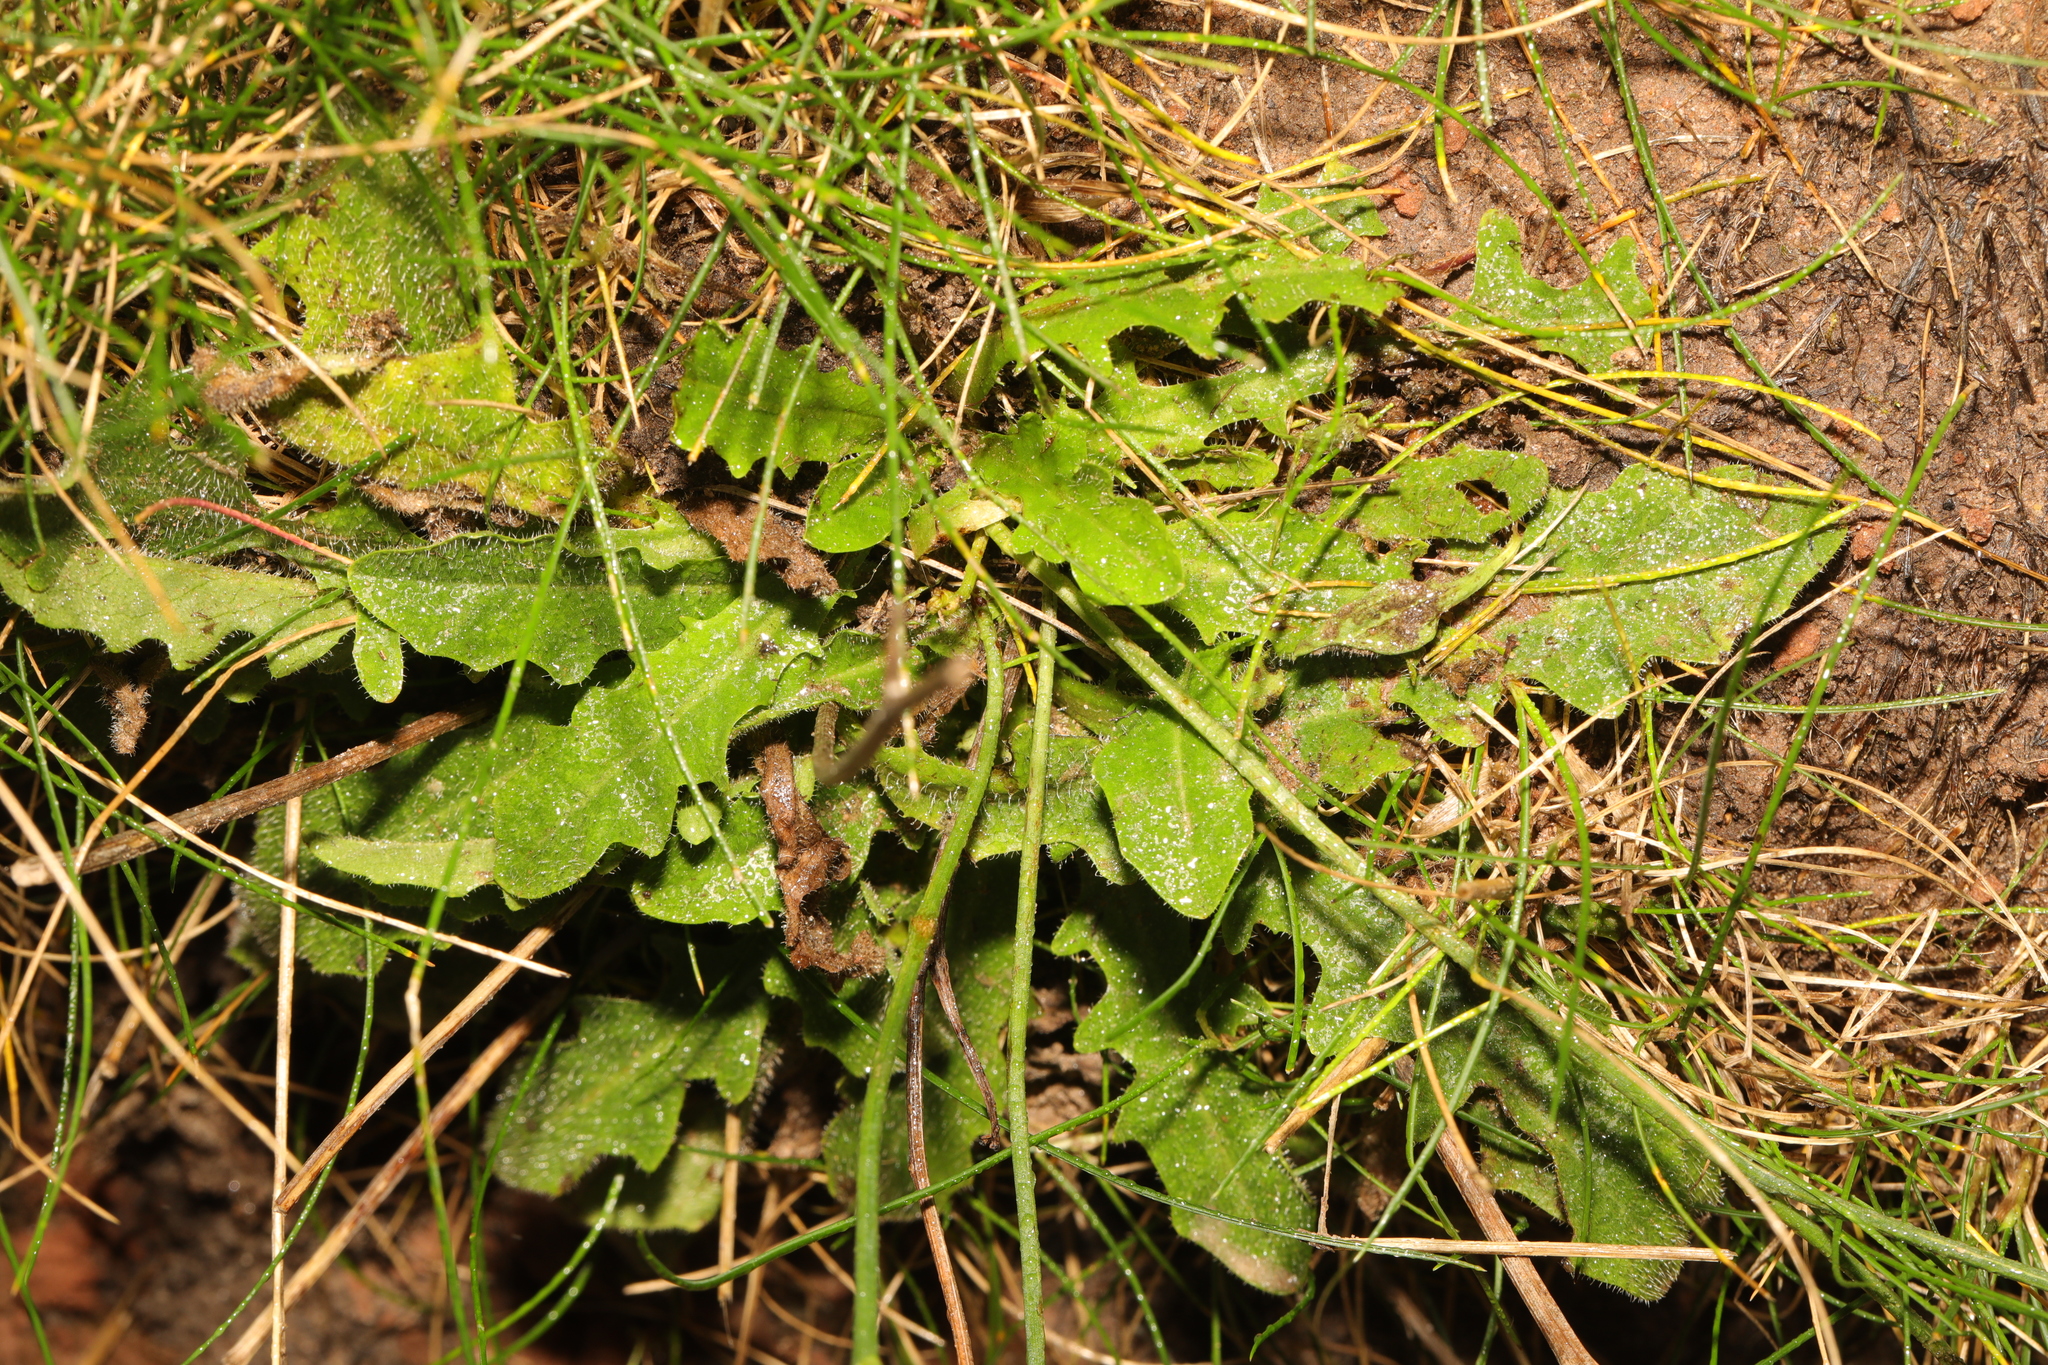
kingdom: Plantae
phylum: Tracheophyta
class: Magnoliopsida
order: Asterales
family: Asteraceae
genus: Hypochaeris
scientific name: Hypochaeris radicata
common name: Flatweed
